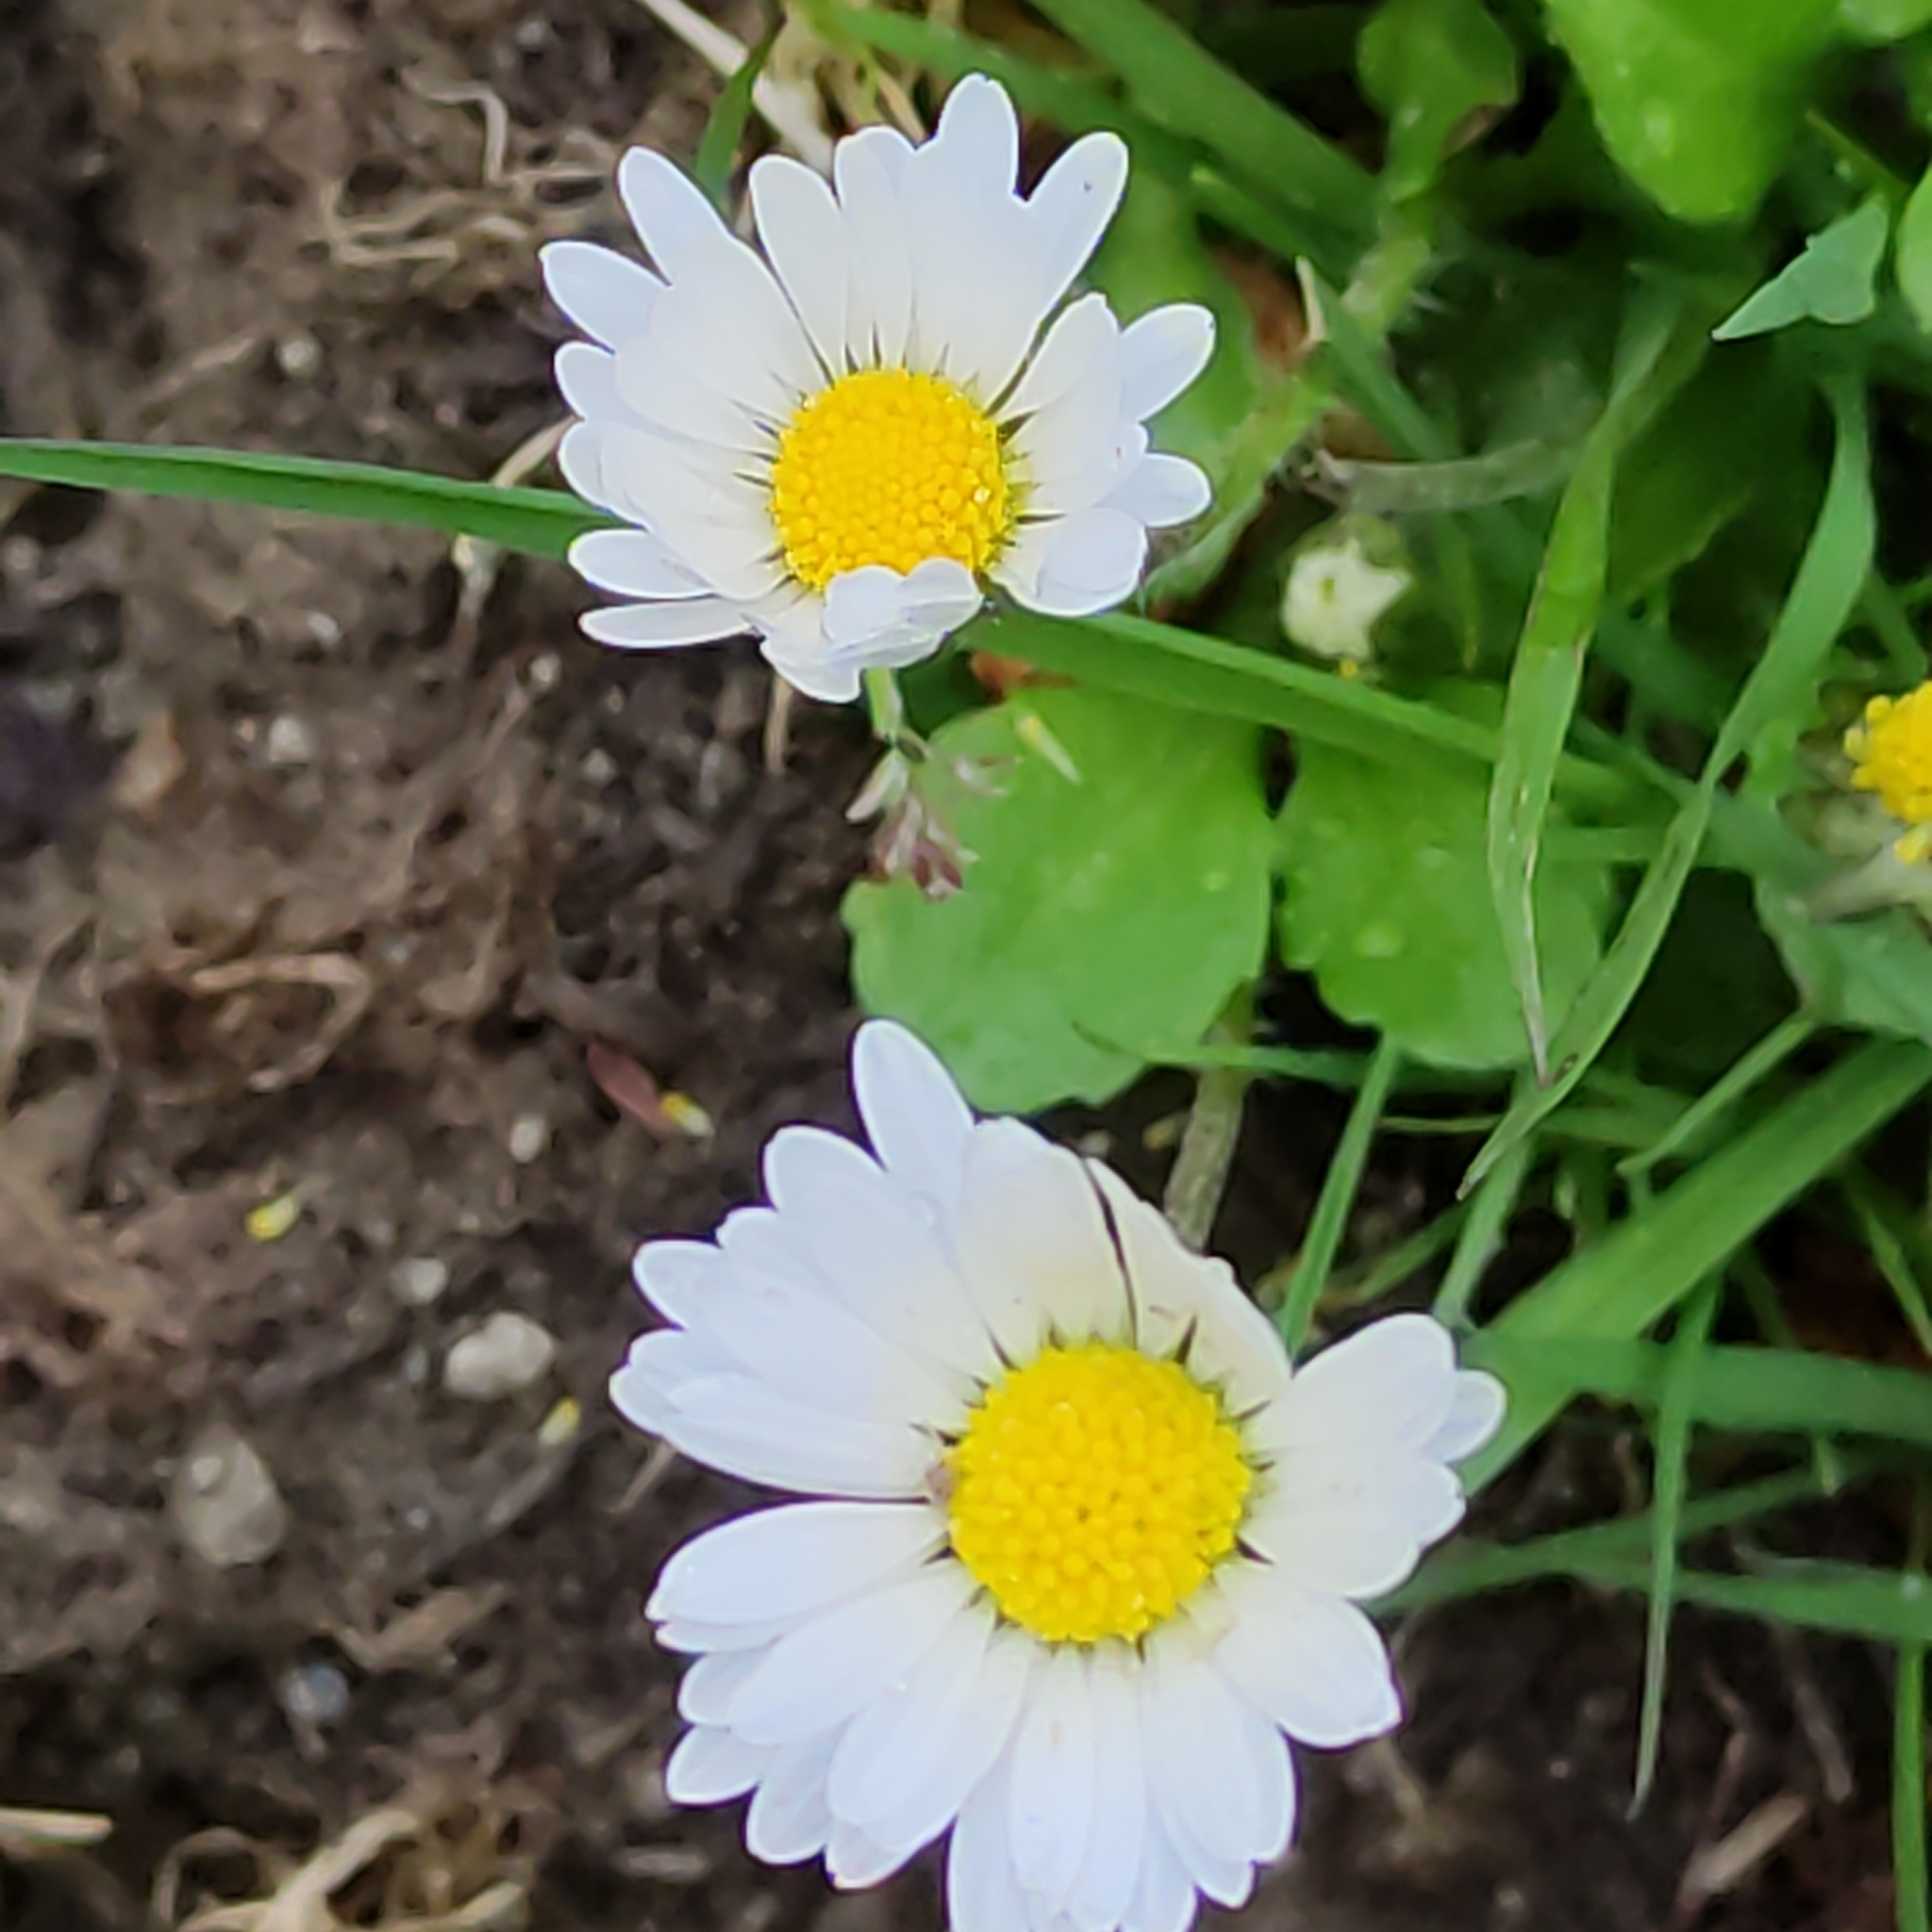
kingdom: Plantae
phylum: Tracheophyta
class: Magnoliopsida
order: Asterales
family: Asteraceae
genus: Bellis
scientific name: Bellis perennis
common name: Lawndaisy
